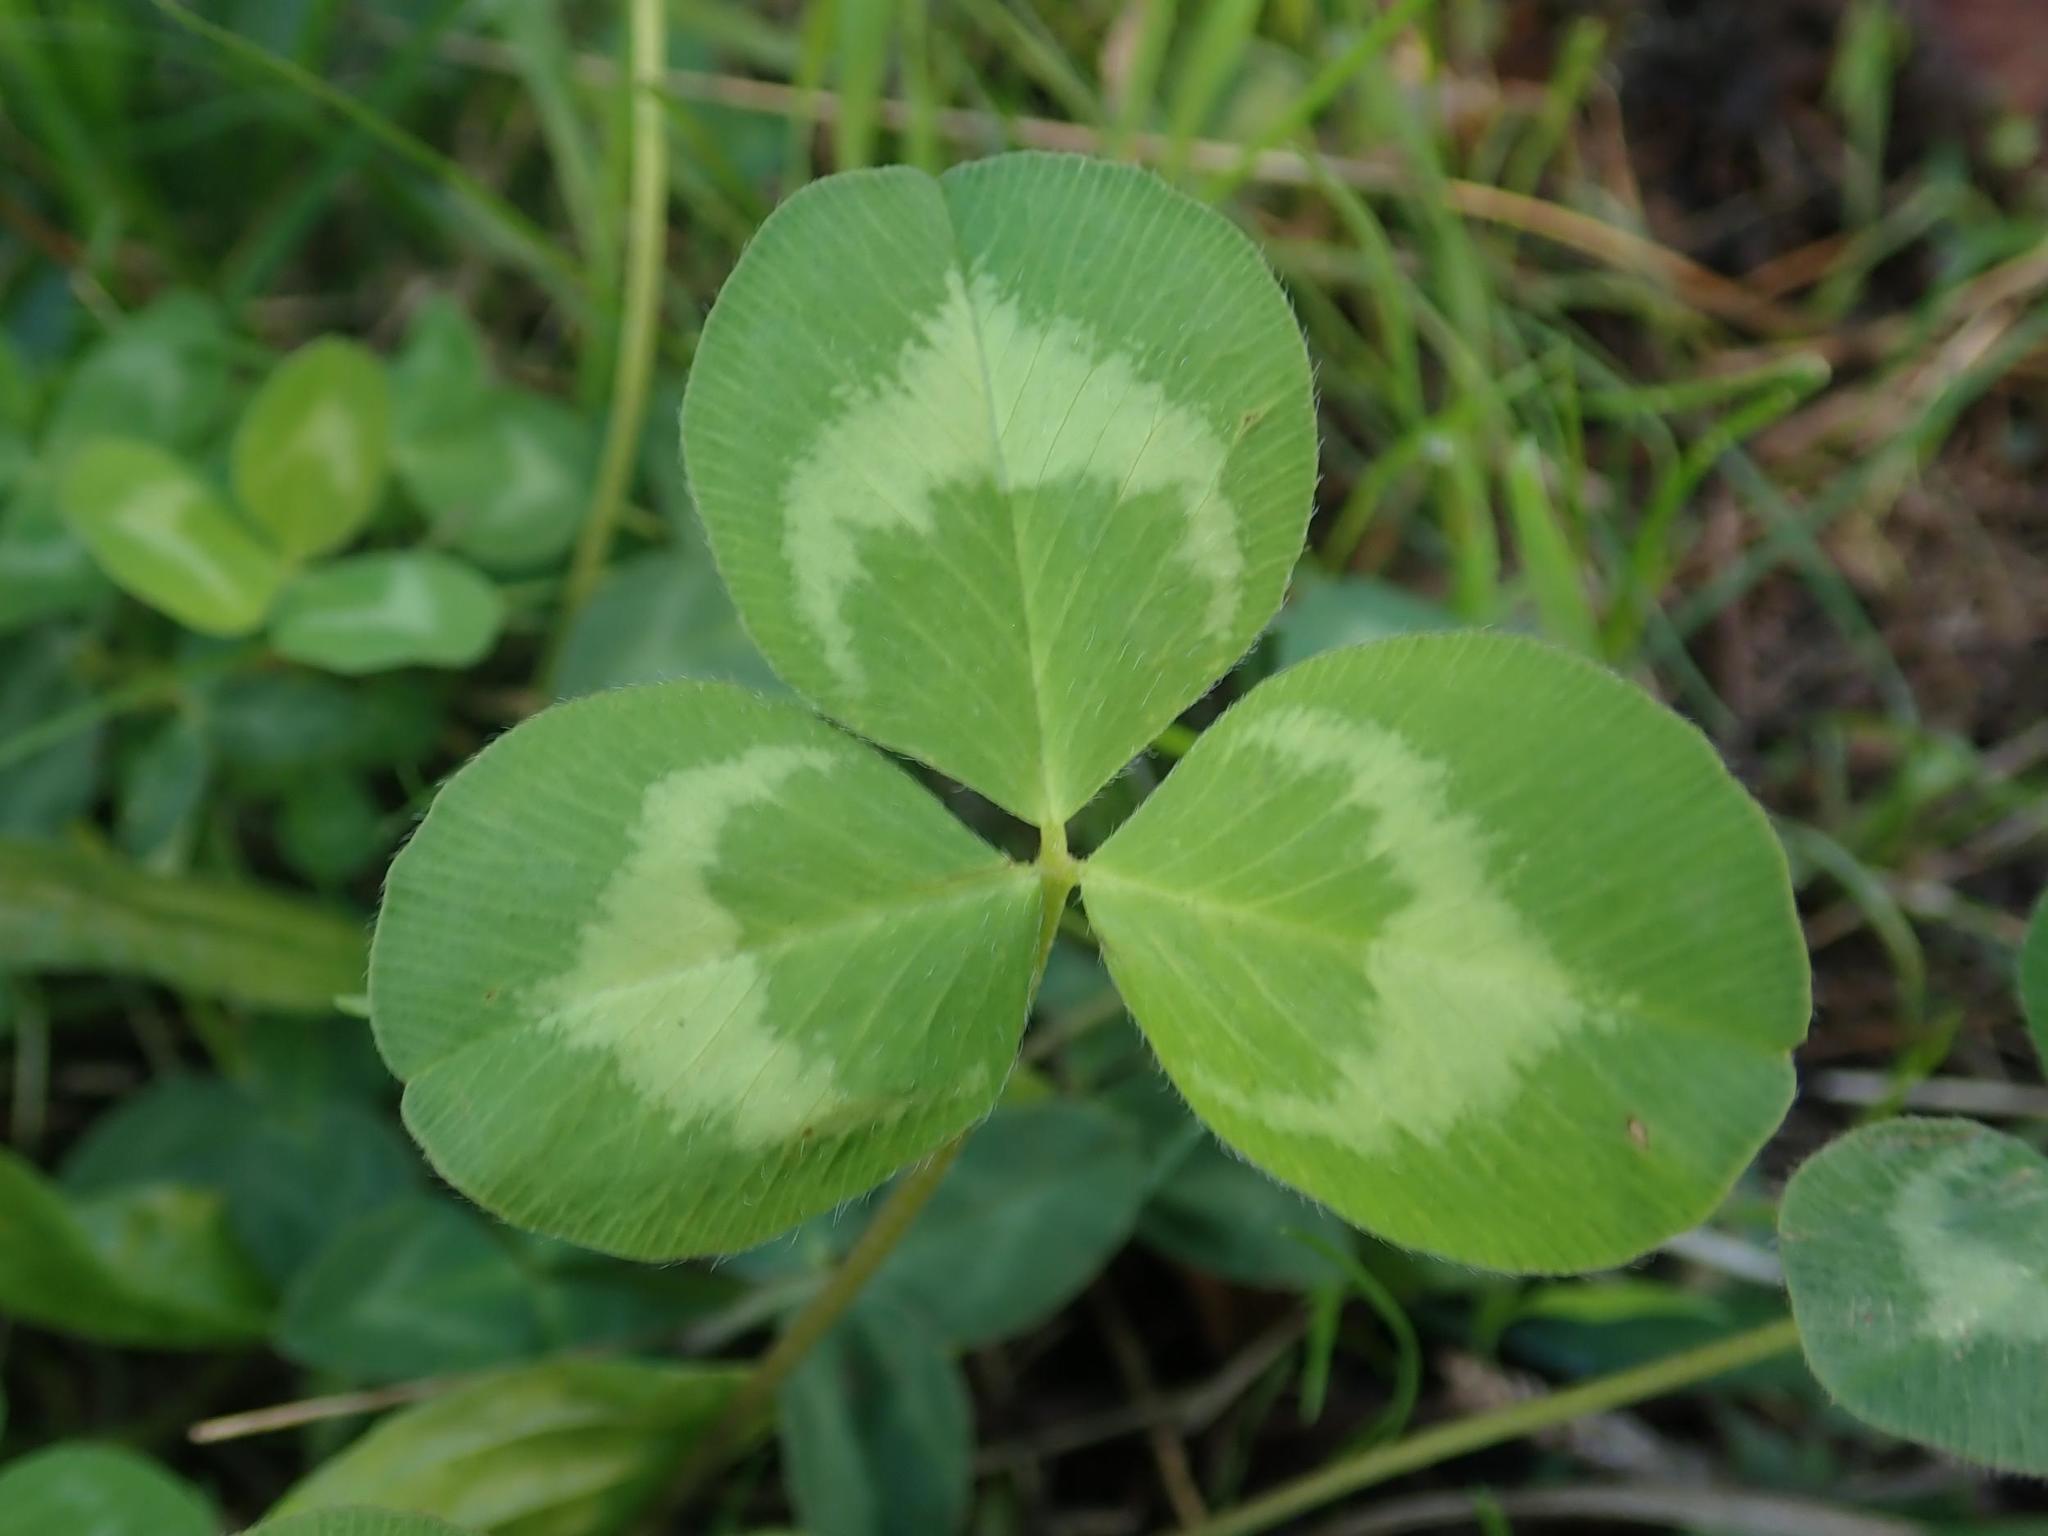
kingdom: Plantae
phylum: Tracheophyta
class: Magnoliopsida
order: Fabales
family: Fabaceae
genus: Trifolium
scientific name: Trifolium repens
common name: White clover
